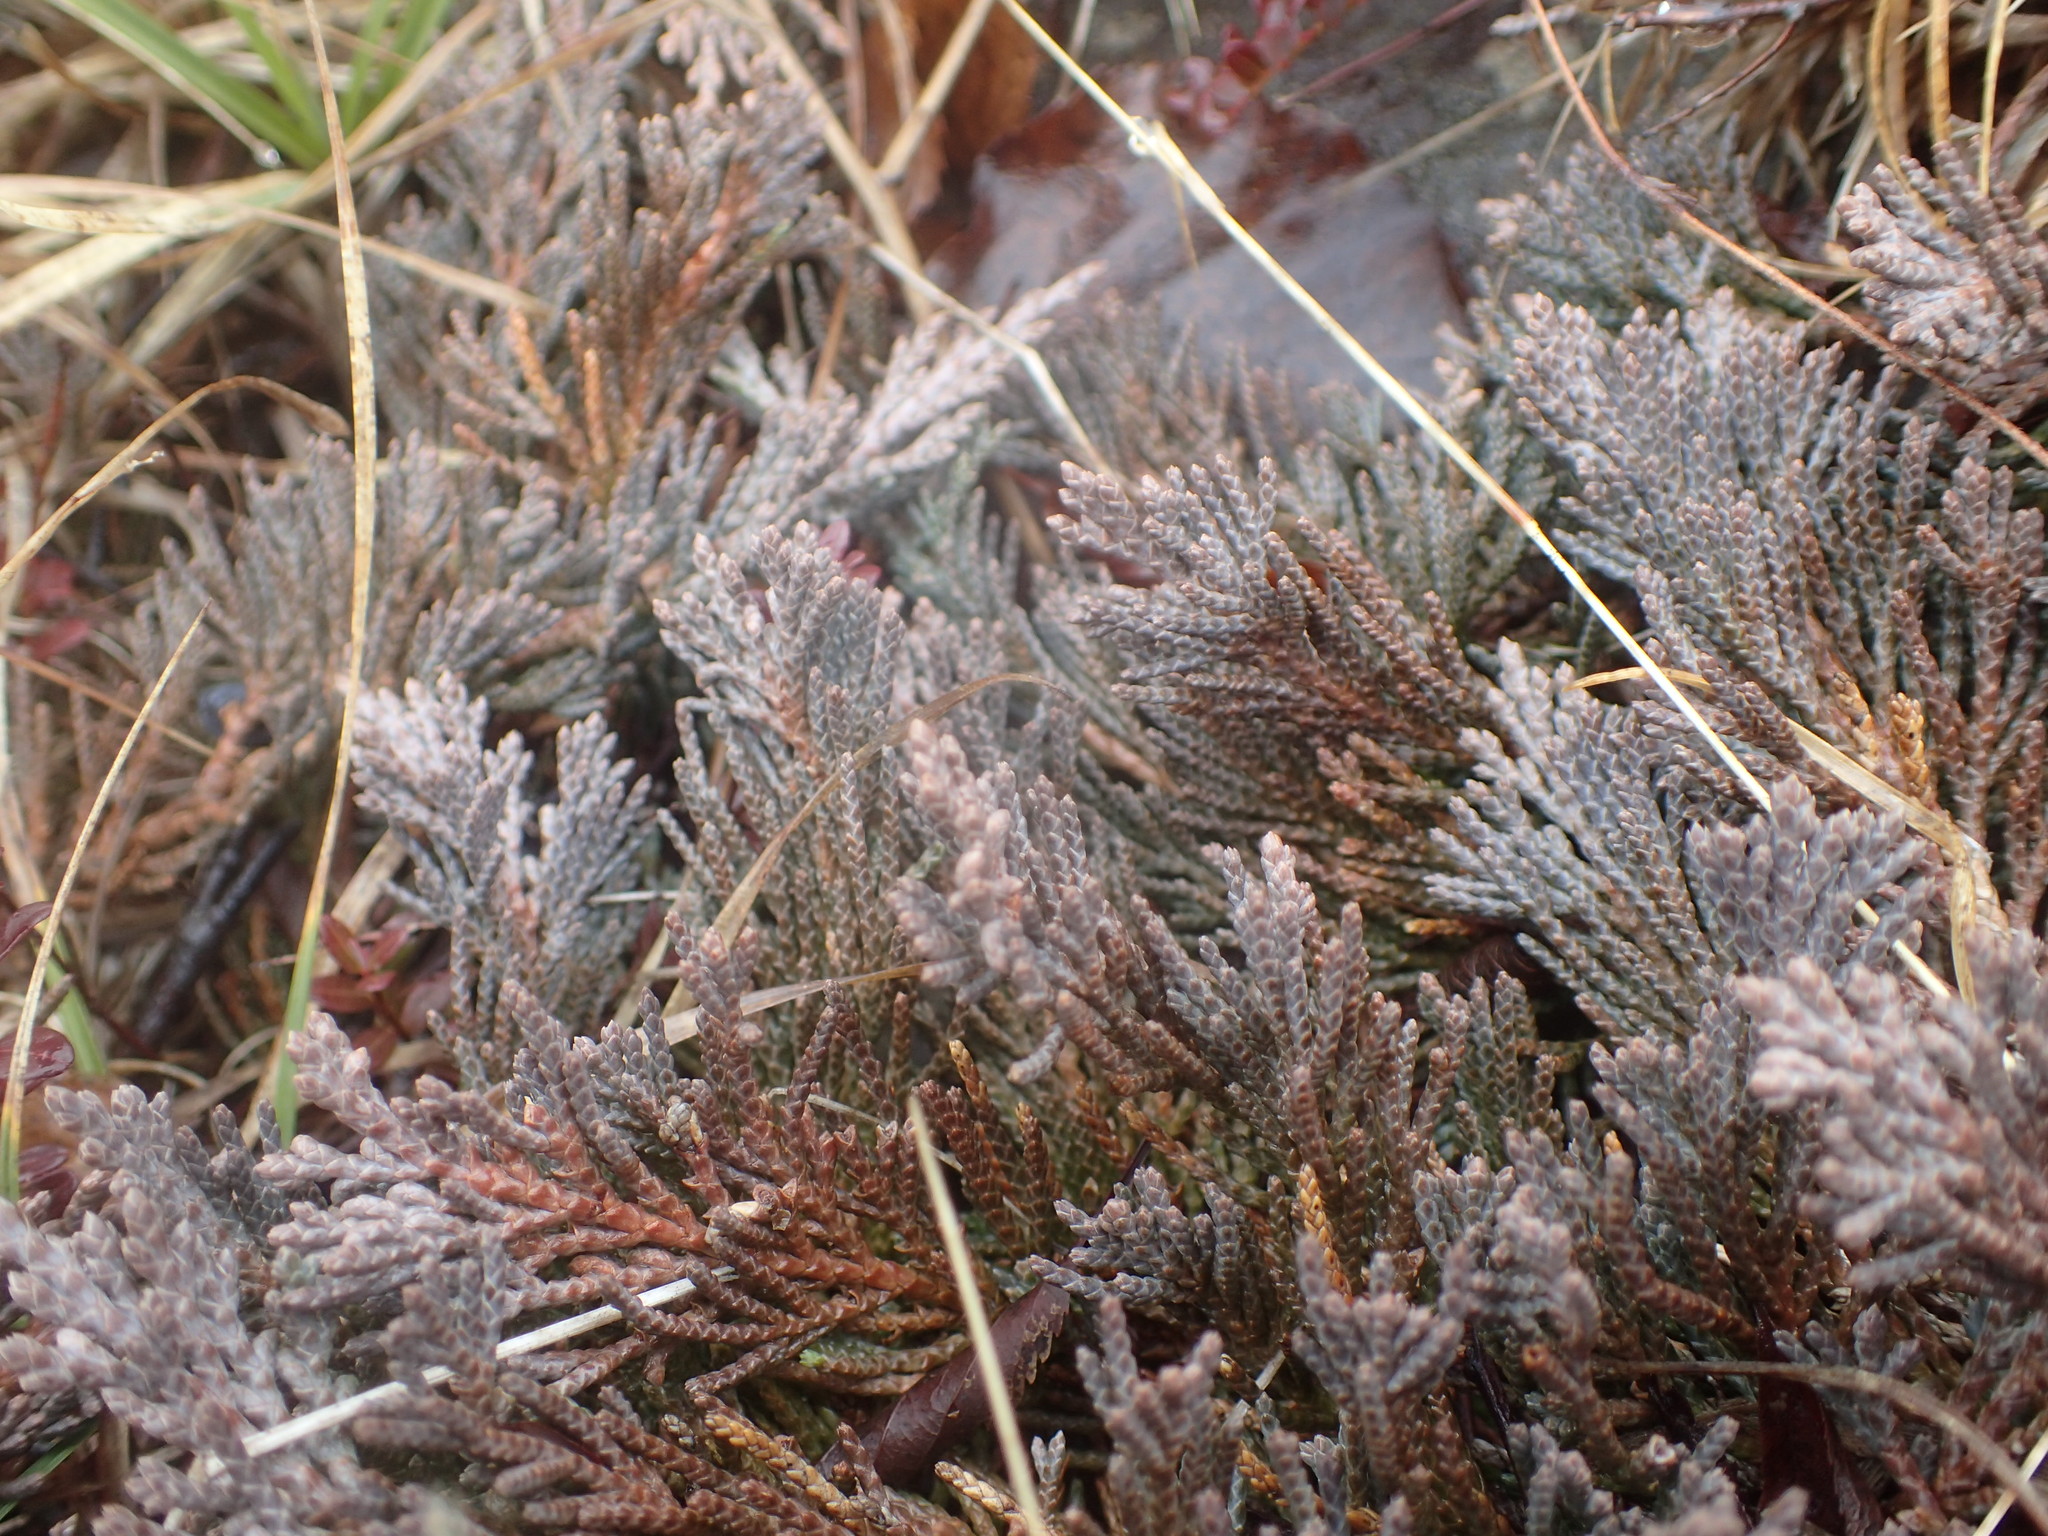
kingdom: Plantae
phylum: Tracheophyta
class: Pinopsida
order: Pinales
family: Cupressaceae
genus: Juniperus
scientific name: Juniperus horizontalis
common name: Creeping juniper
